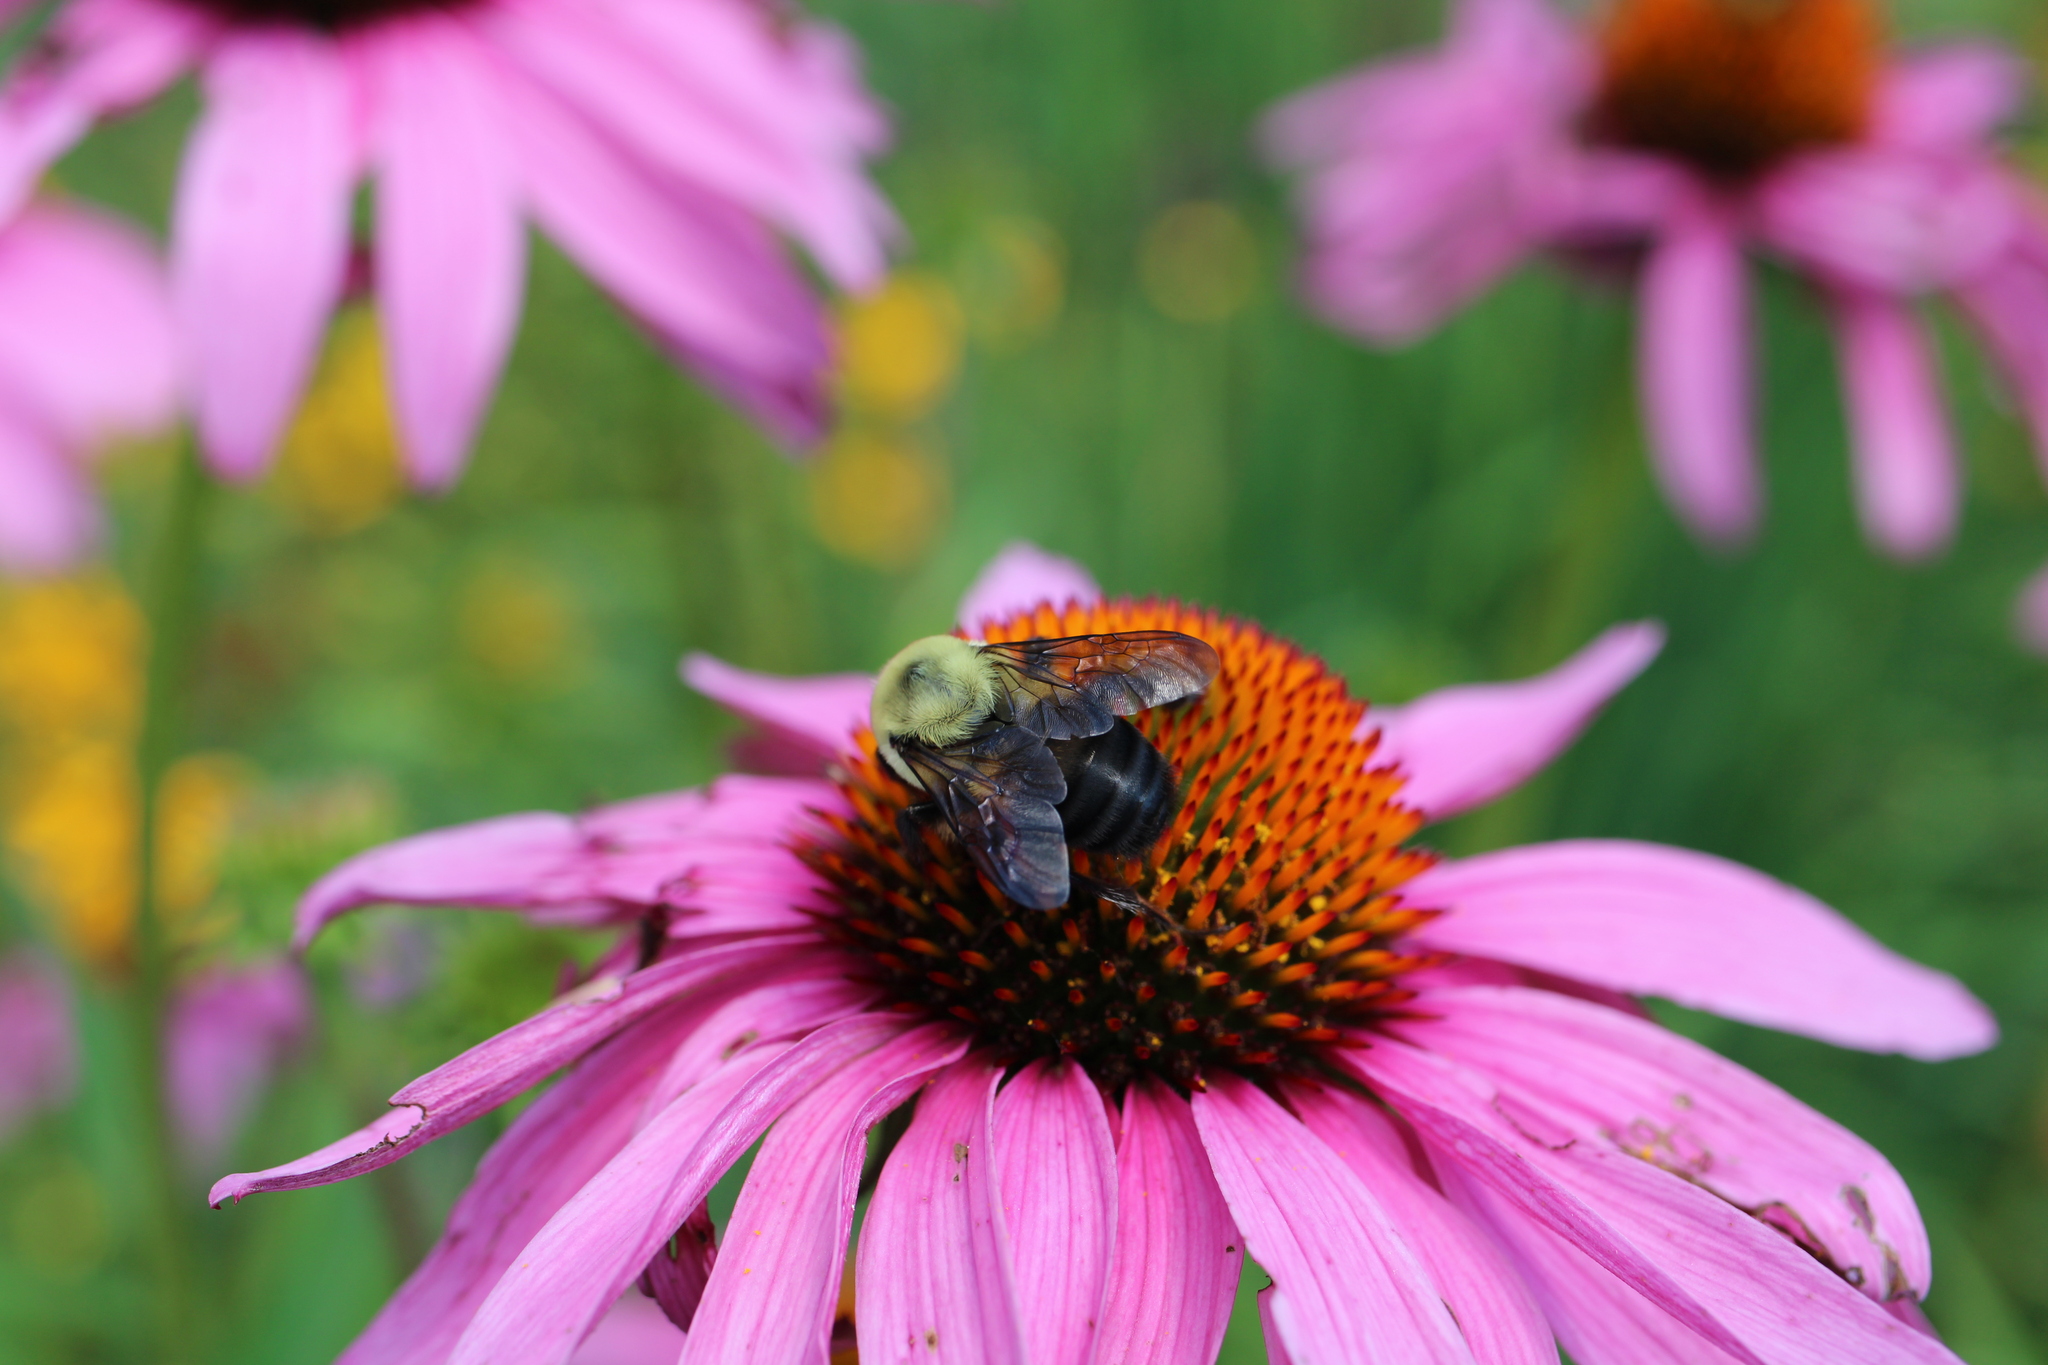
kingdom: Animalia
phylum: Arthropoda
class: Insecta
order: Hymenoptera
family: Apidae
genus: Bombus
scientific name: Bombus griseocollis
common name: Brown-belted bumble bee
